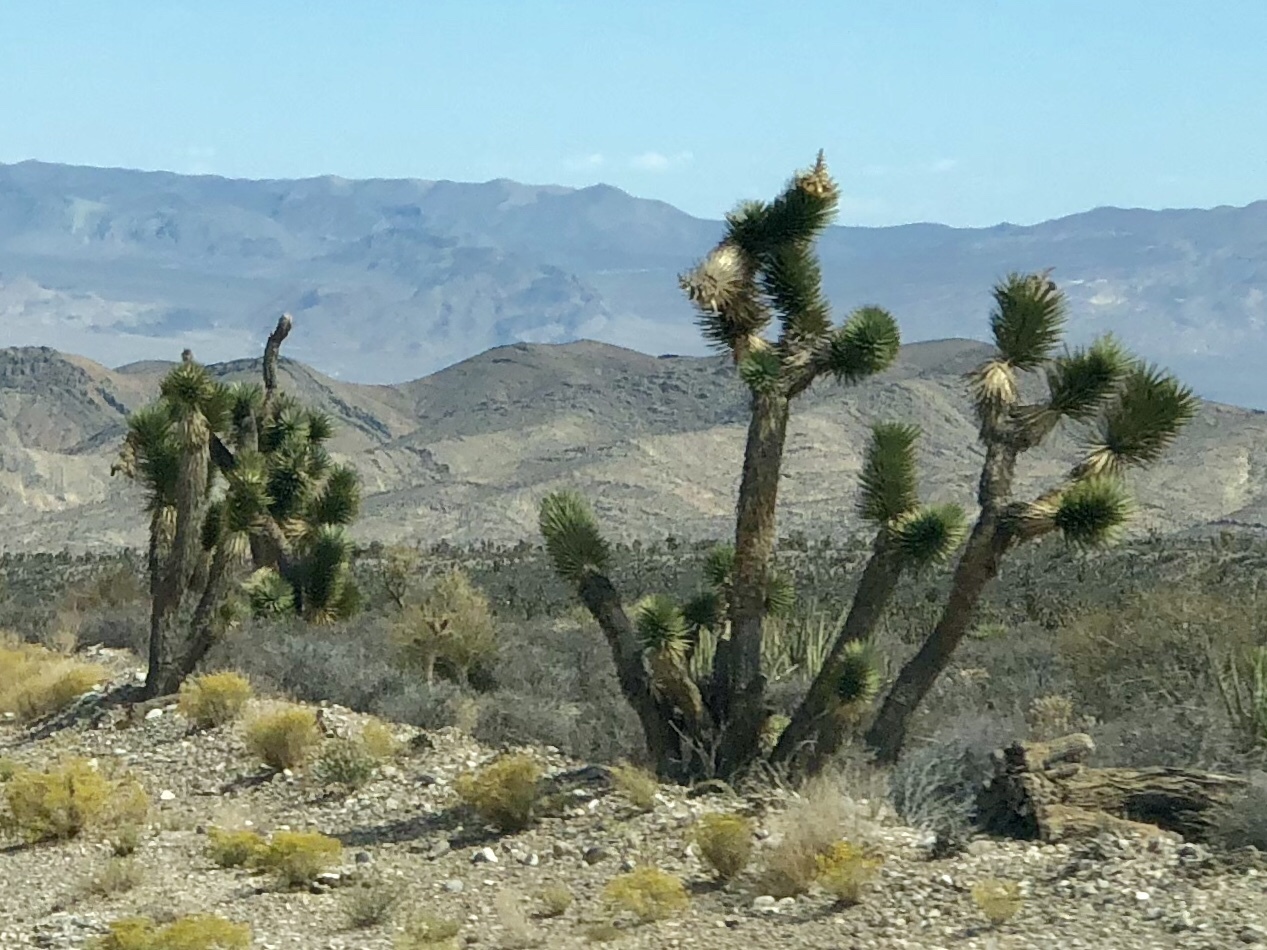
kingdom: Plantae
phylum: Tracheophyta
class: Liliopsida
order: Asparagales
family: Asparagaceae
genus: Yucca
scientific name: Yucca brevifolia
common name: Joshua tree
